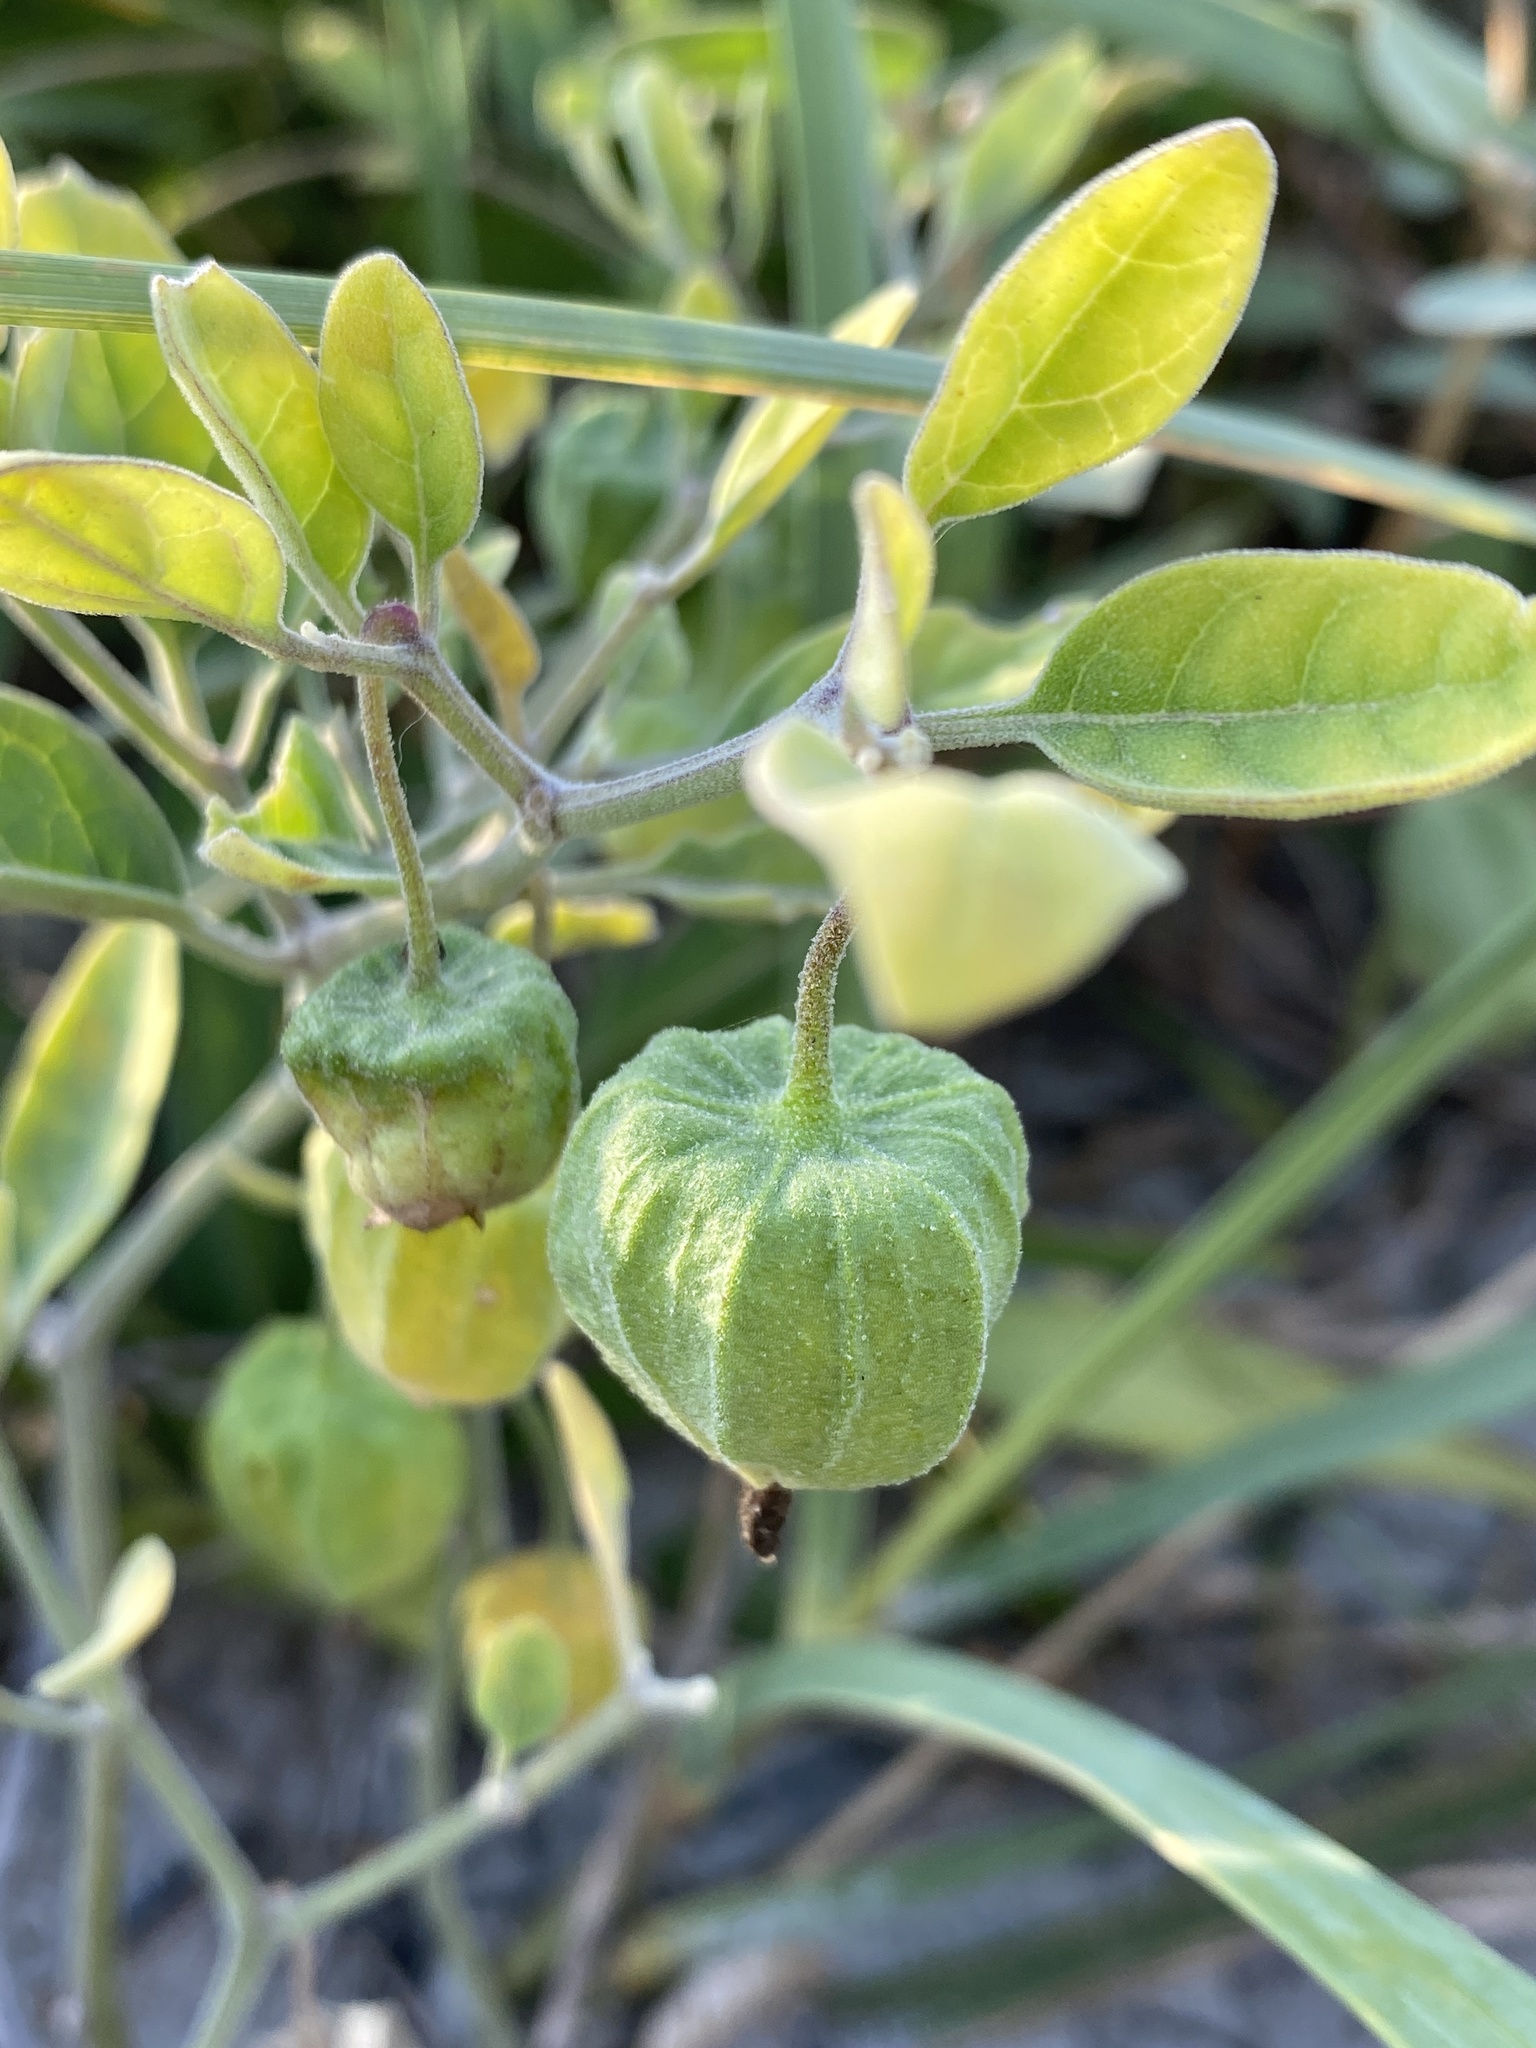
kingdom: Plantae
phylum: Tracheophyta
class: Magnoliopsida
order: Solanales
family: Solanaceae
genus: Physalis
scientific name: Physalis walteri
